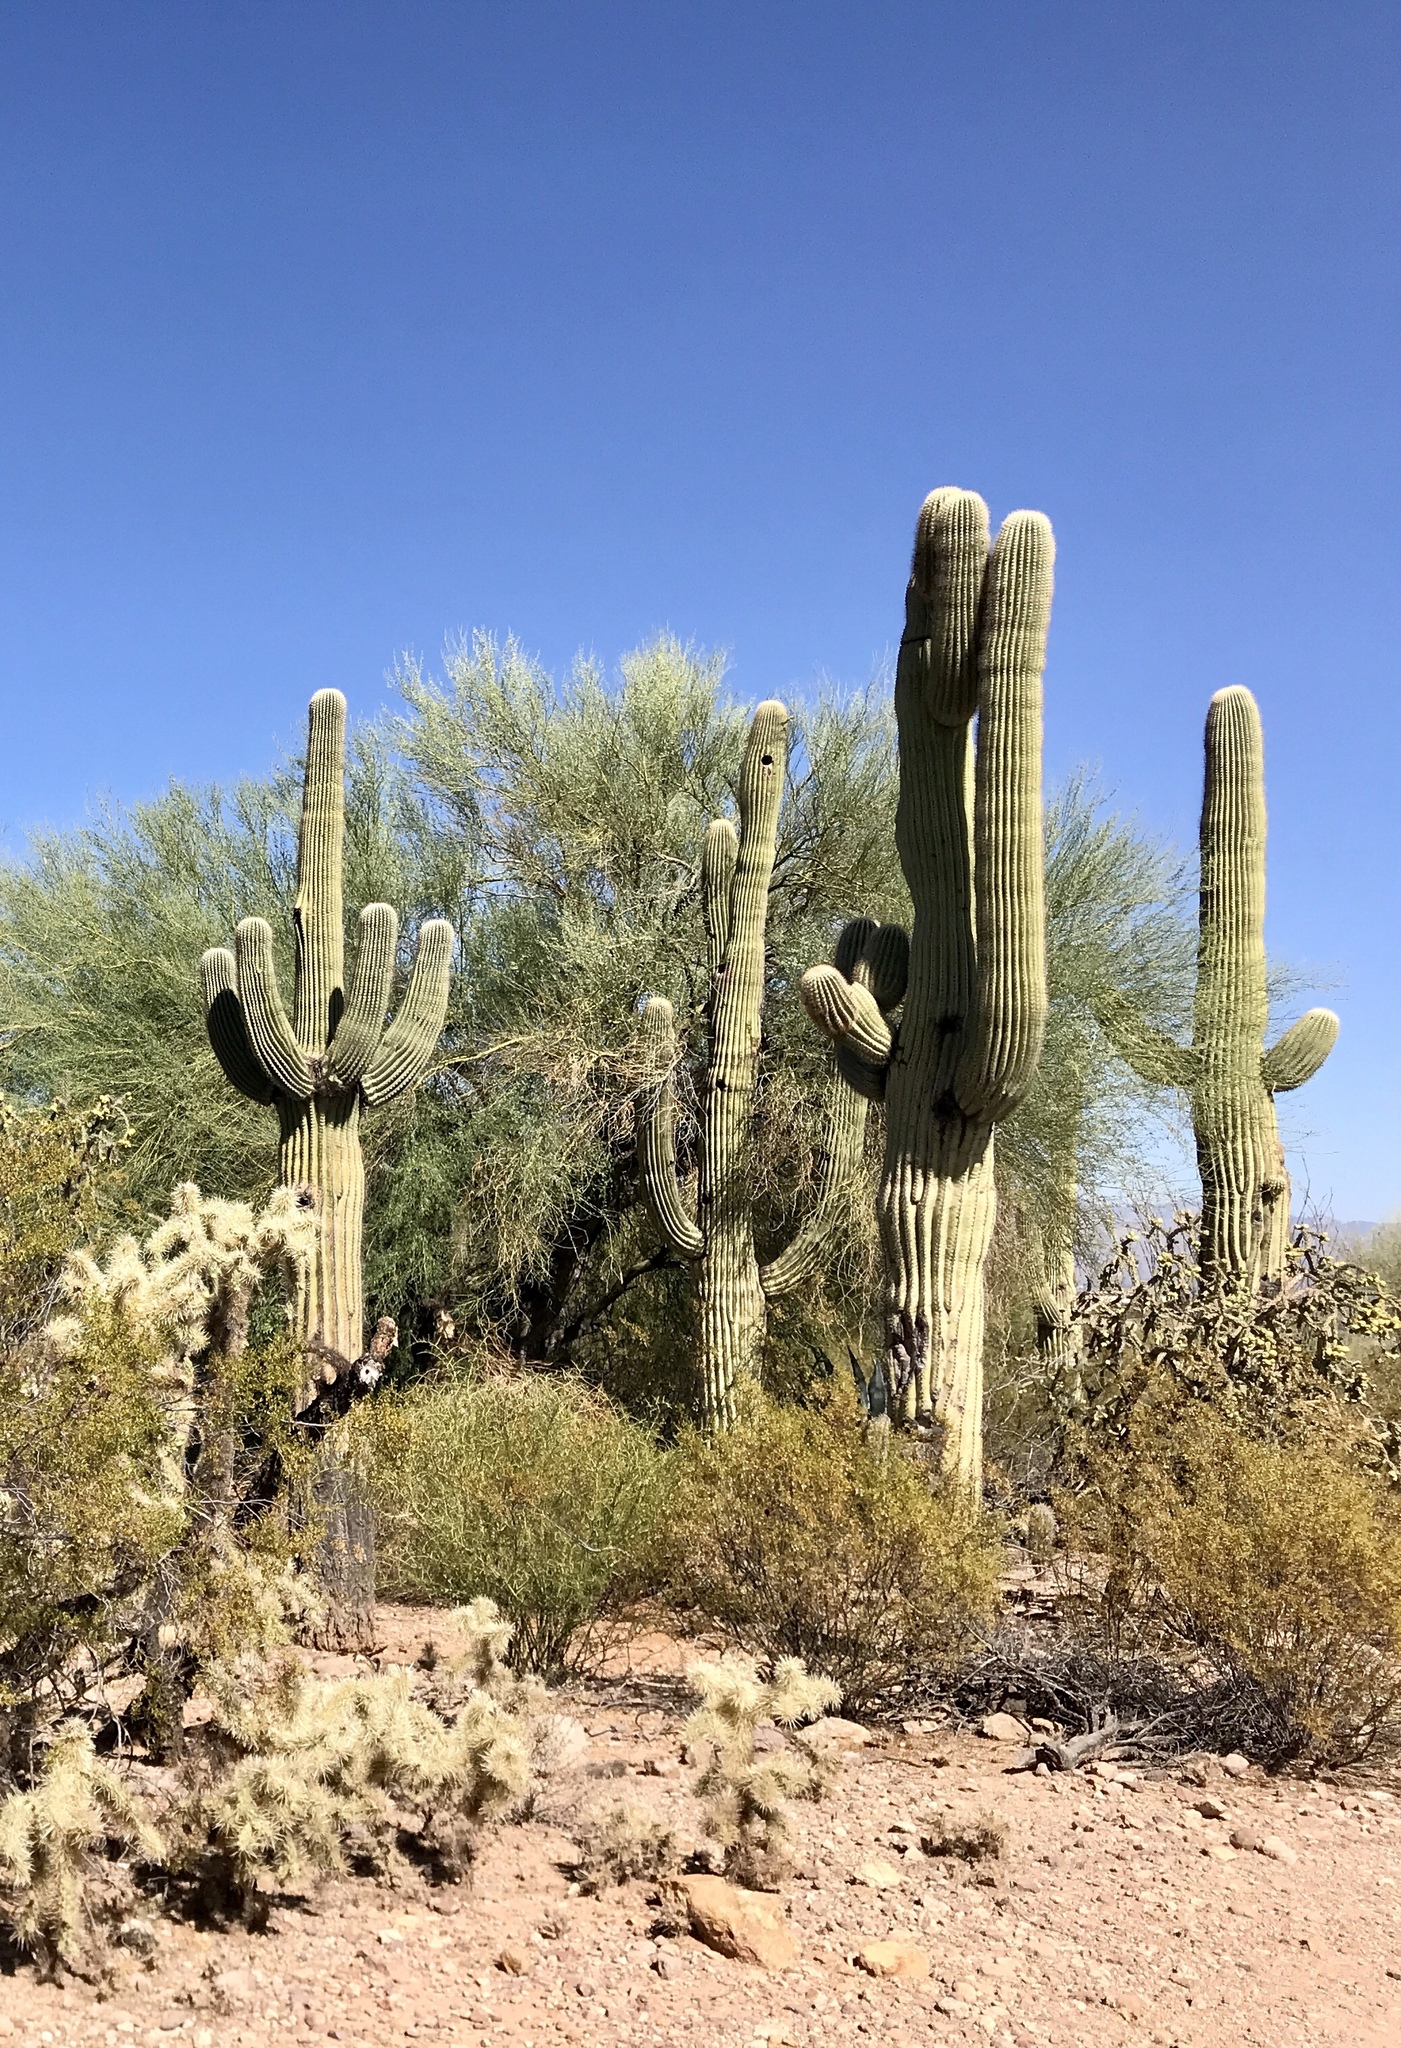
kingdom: Plantae
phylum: Tracheophyta
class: Magnoliopsida
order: Caryophyllales
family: Cactaceae
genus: Carnegiea
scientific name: Carnegiea gigantea
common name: Saguaro
